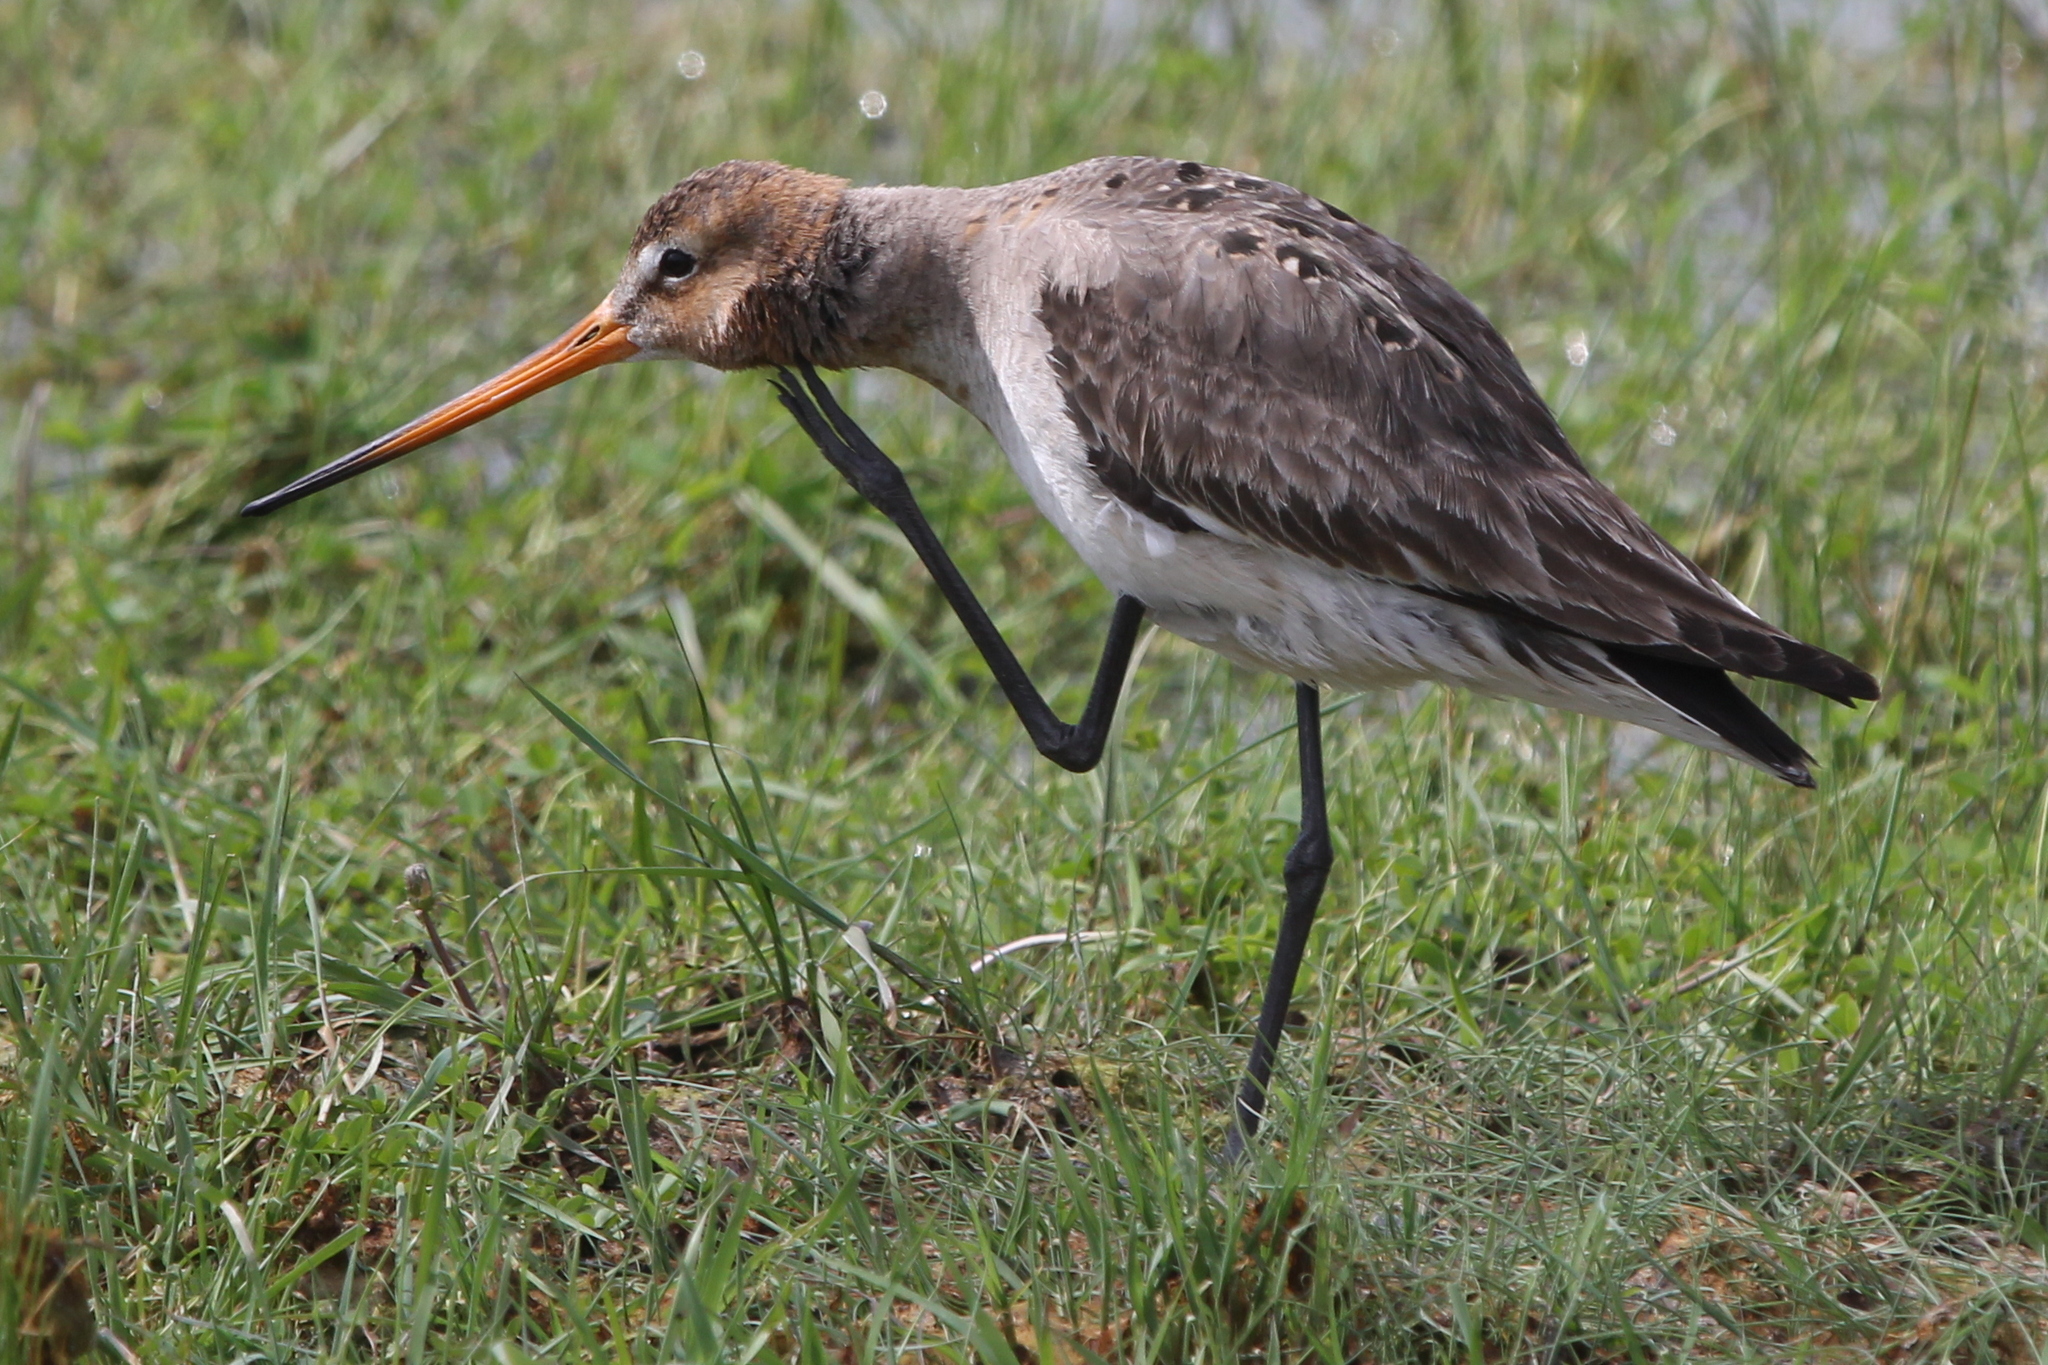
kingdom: Animalia
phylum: Chordata
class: Aves
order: Charadriiformes
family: Scolopacidae
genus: Limosa
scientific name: Limosa limosa
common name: Black-tailed godwit
